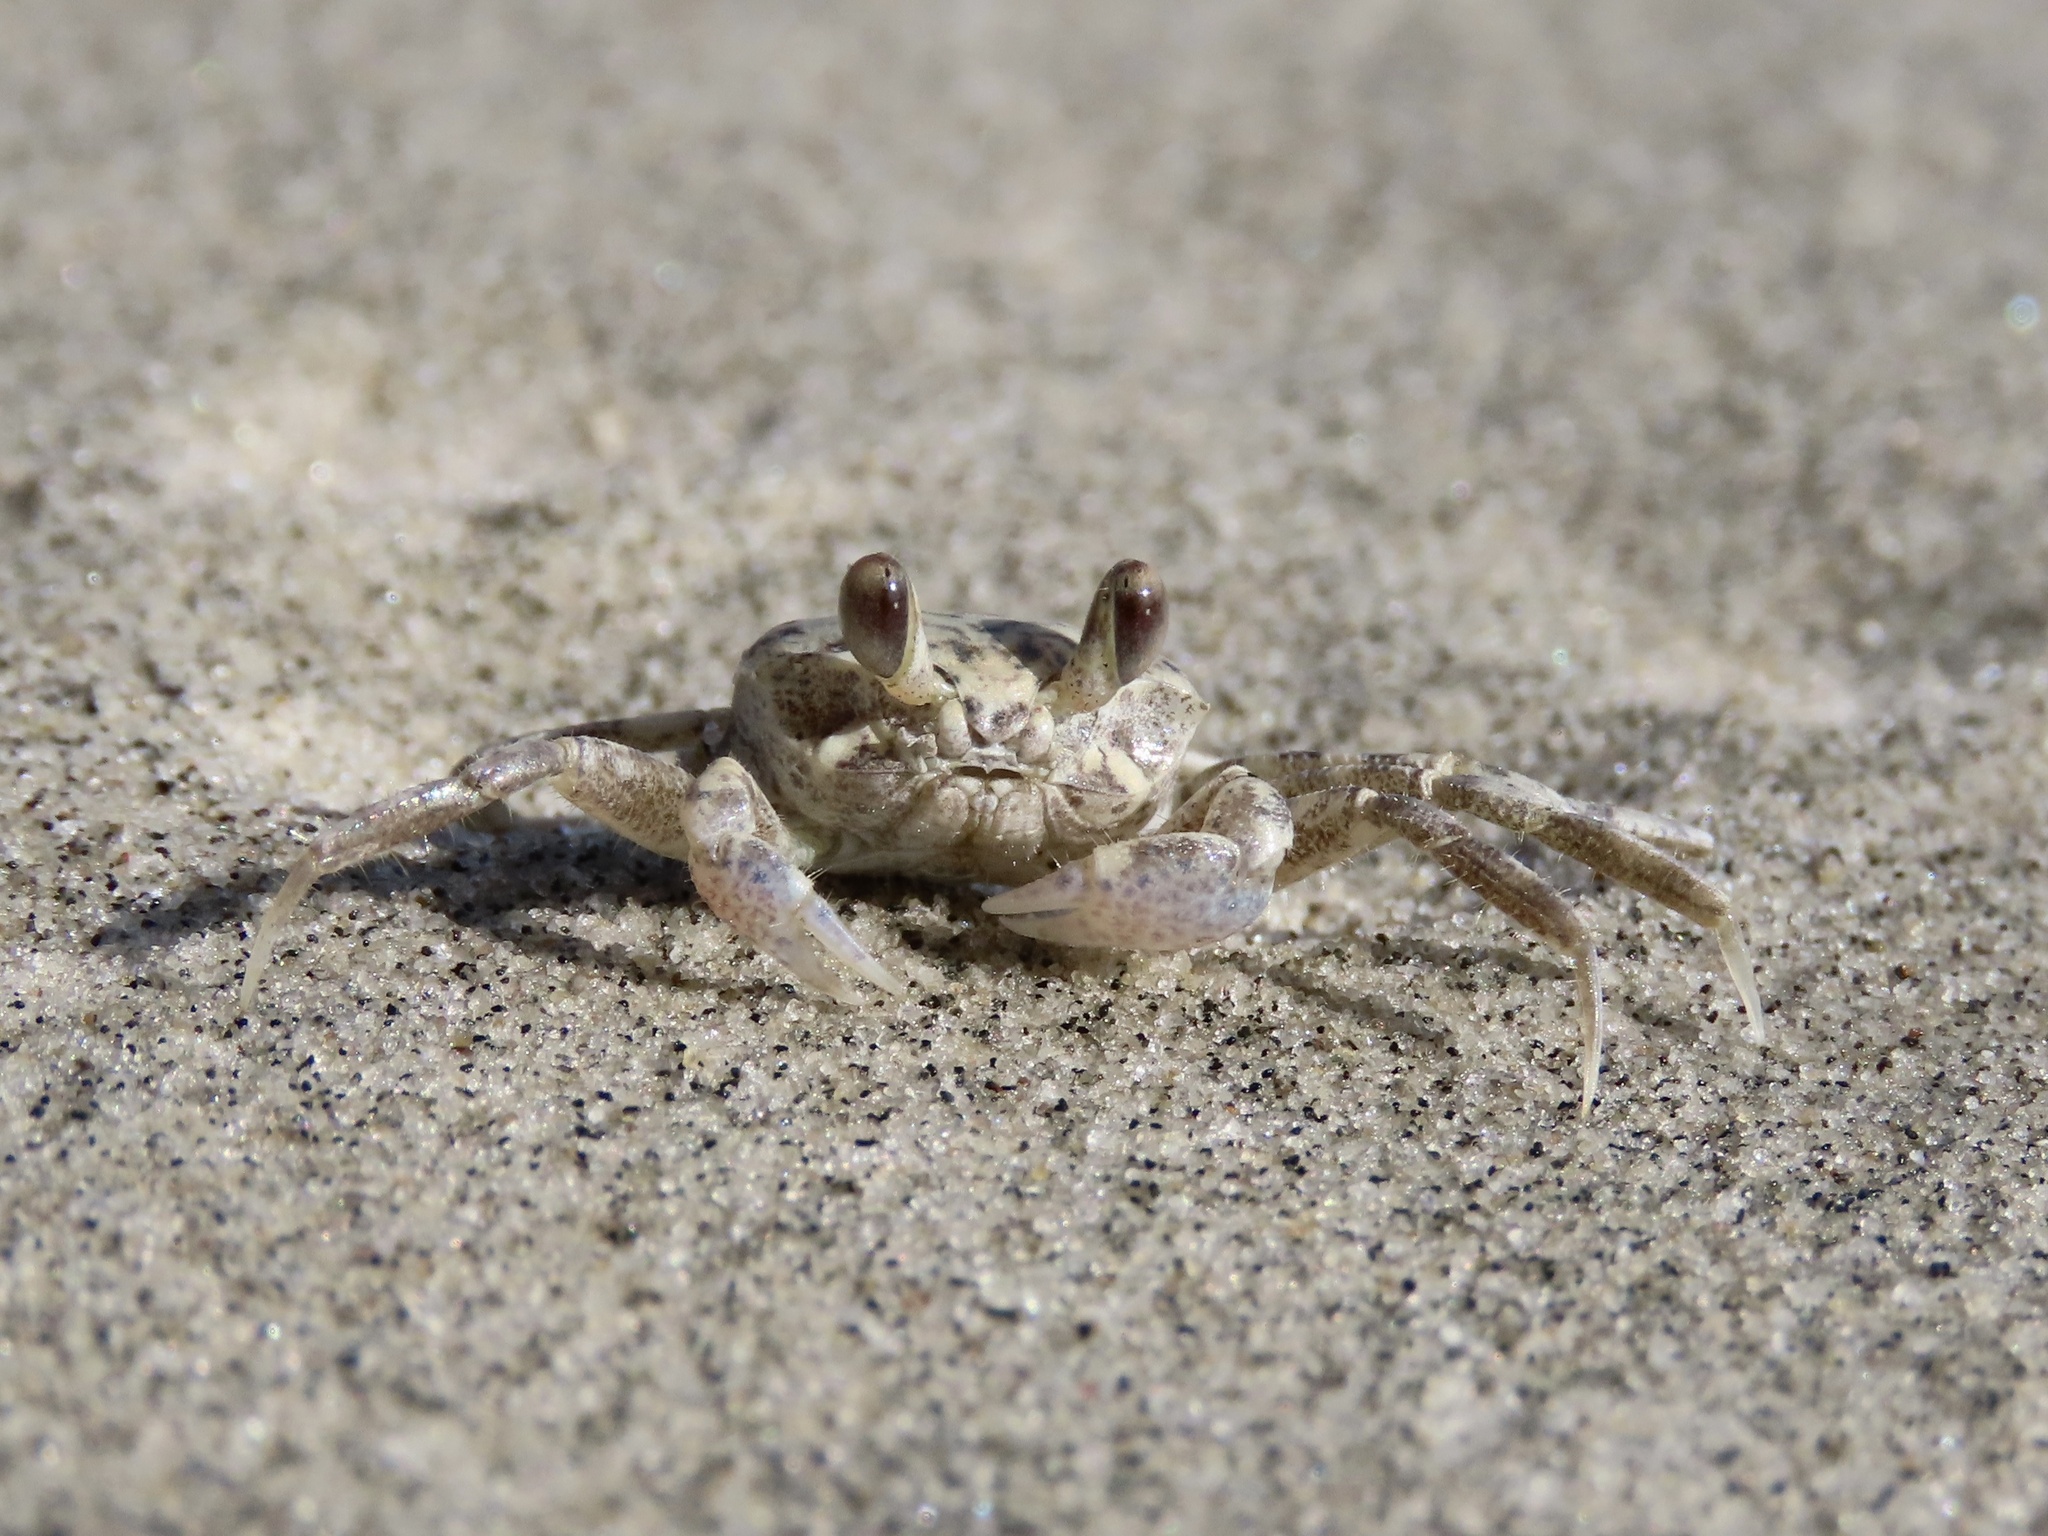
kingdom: Animalia
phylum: Arthropoda
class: Malacostraca
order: Decapoda
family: Ocypodidae
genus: Ocypode
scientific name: Ocypode quadrata
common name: Ghost crab
